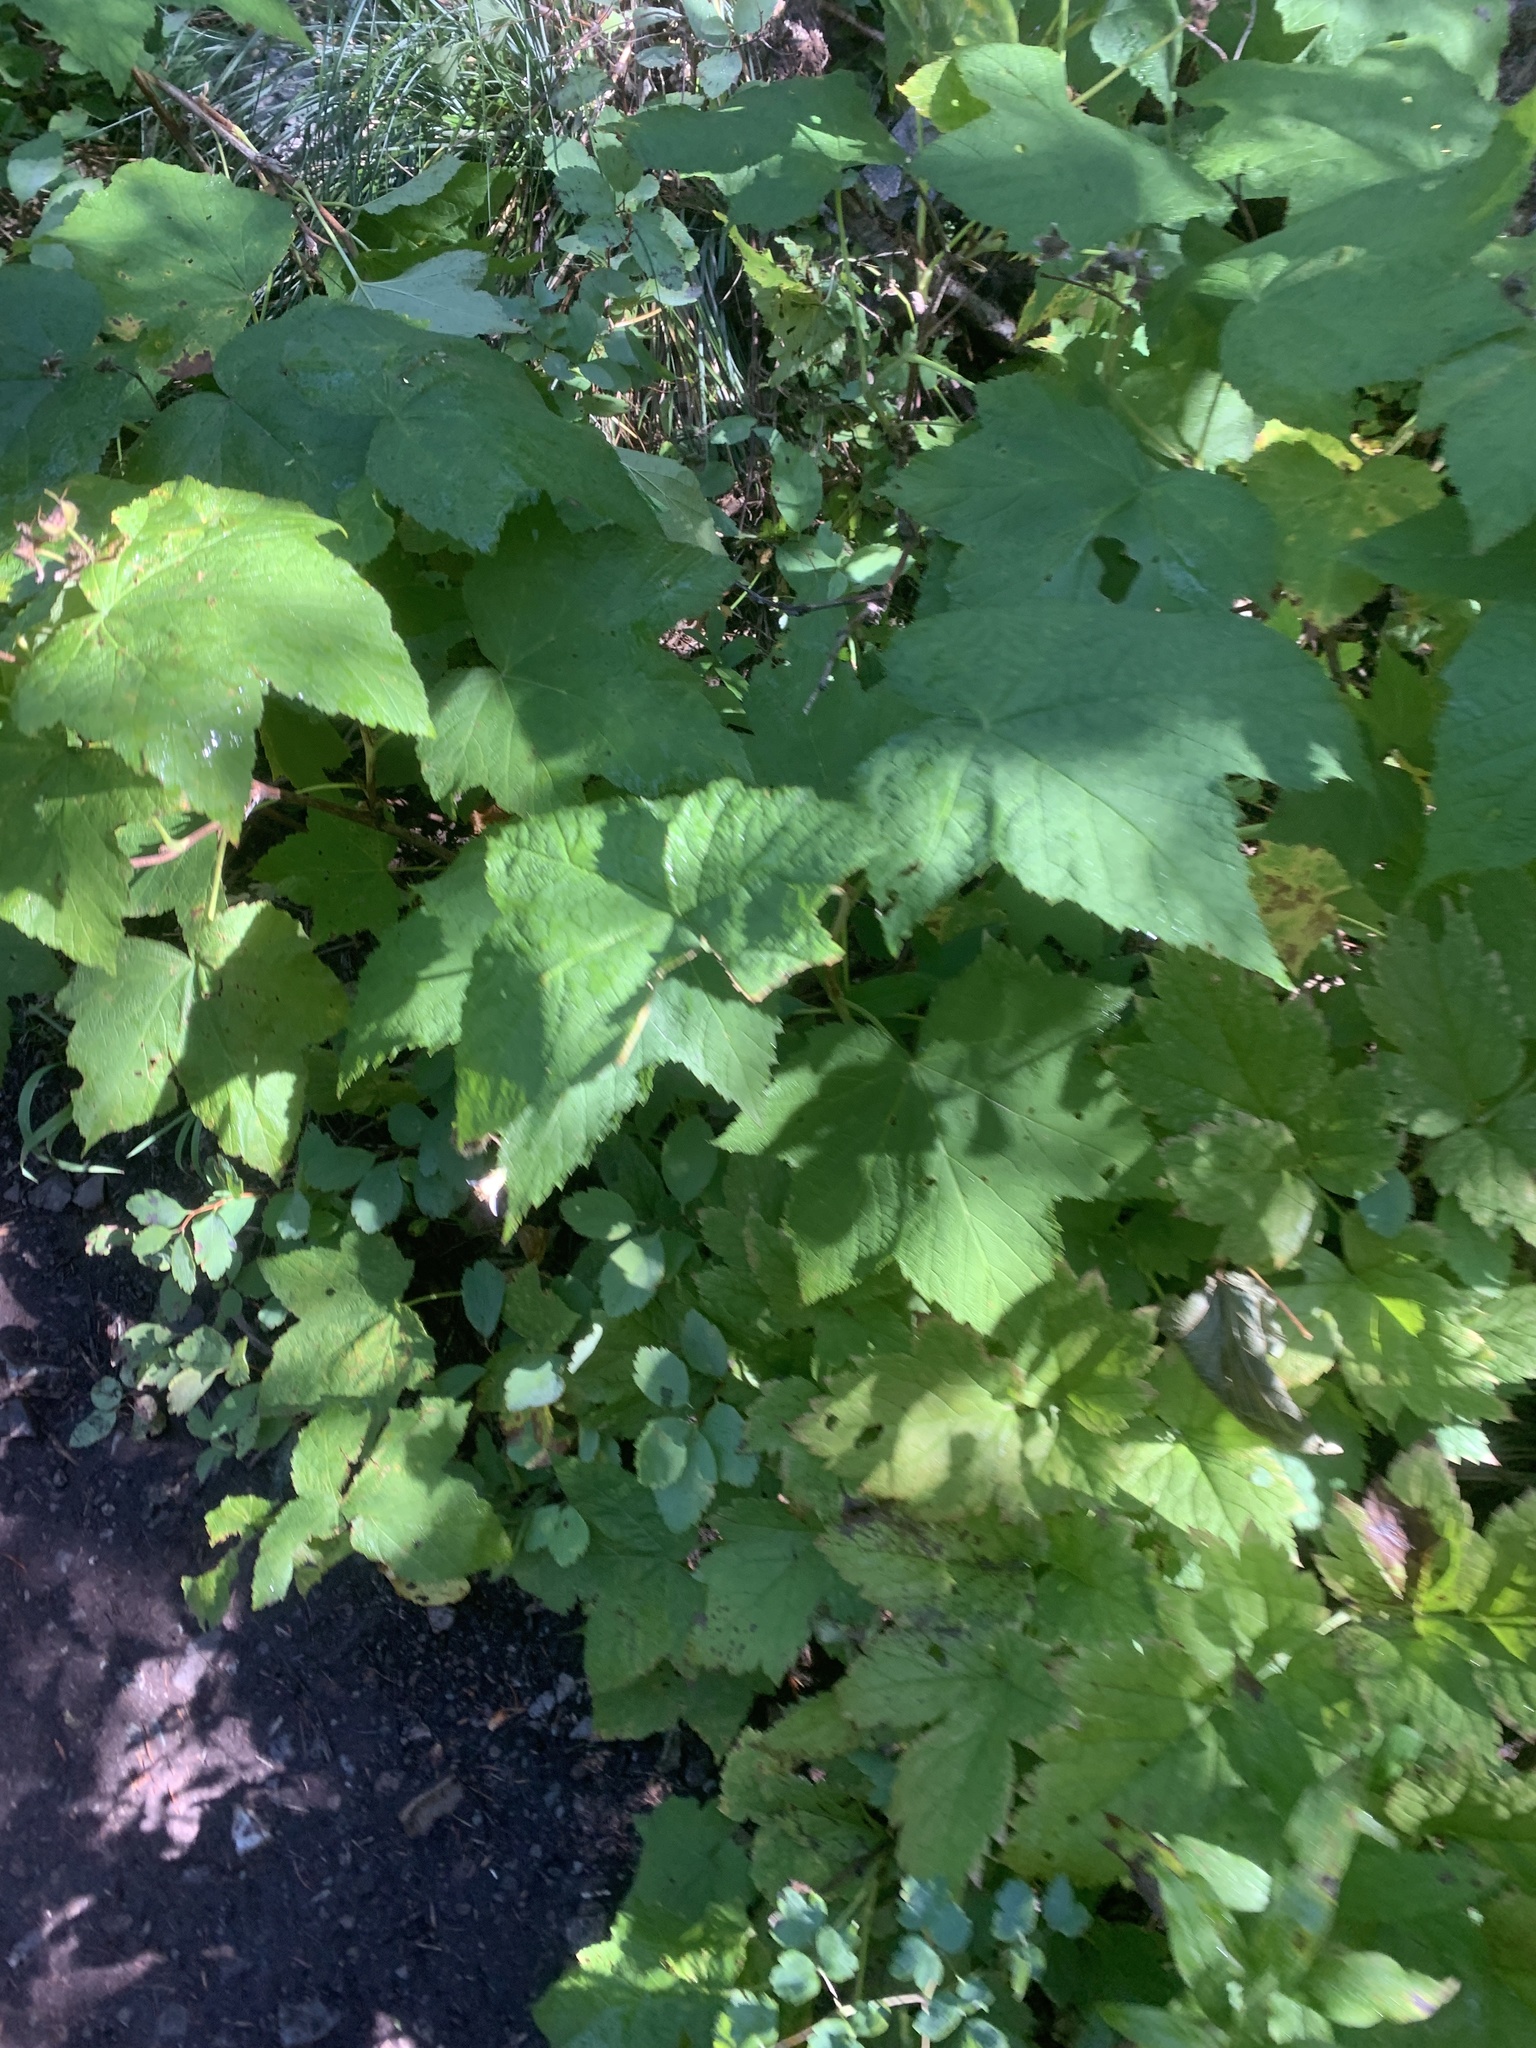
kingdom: Plantae
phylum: Tracheophyta
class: Magnoliopsida
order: Rosales
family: Rosaceae
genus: Rubus
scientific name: Rubus parviflorus
